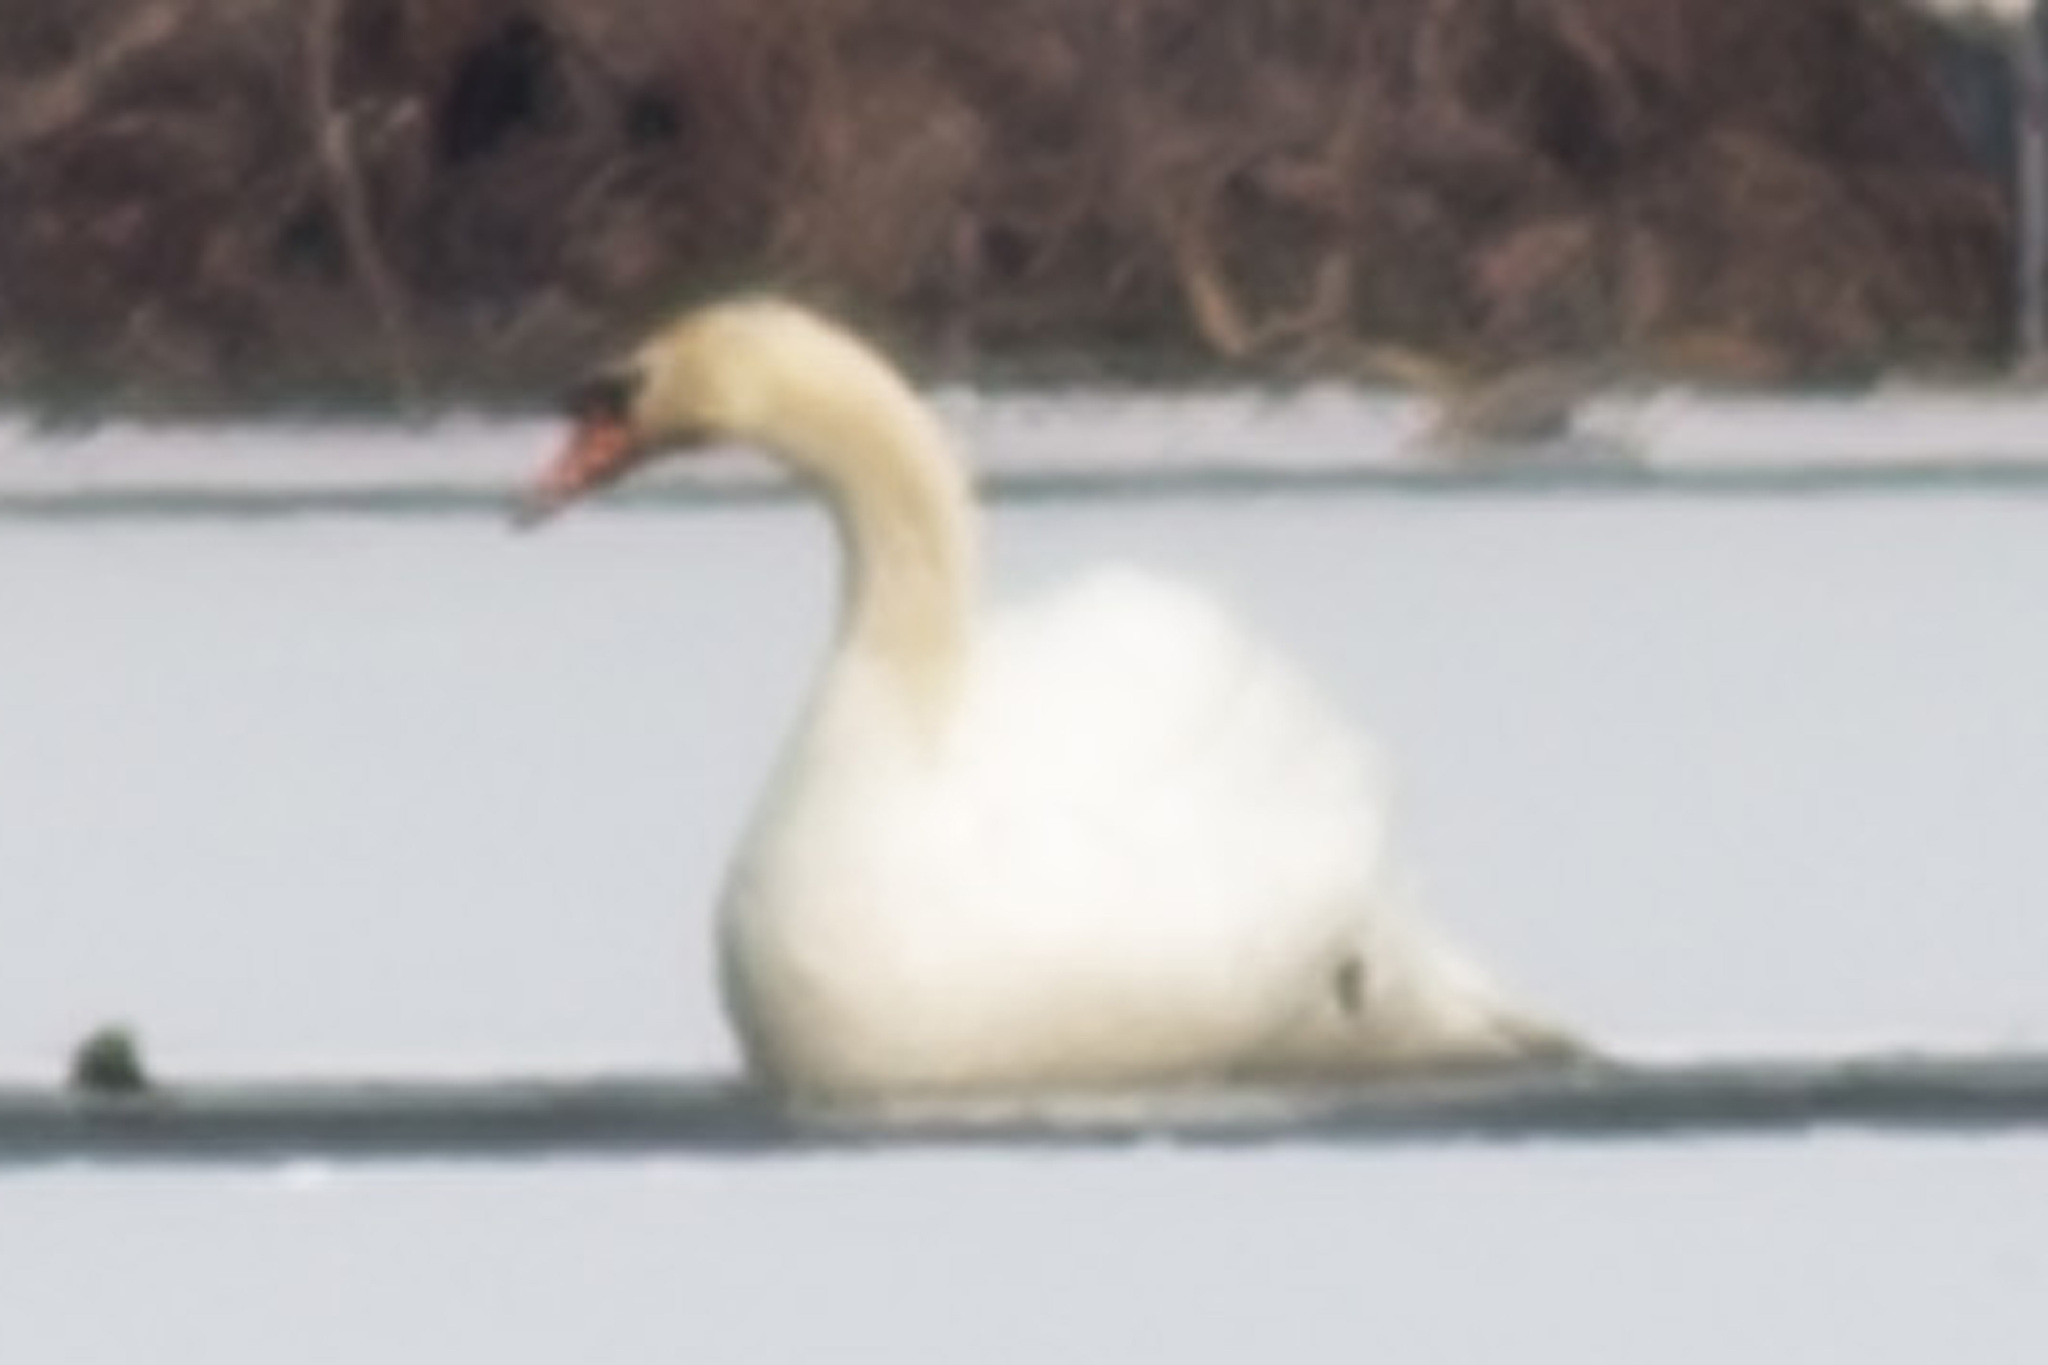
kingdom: Animalia
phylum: Chordata
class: Aves
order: Anseriformes
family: Anatidae
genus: Cygnus
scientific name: Cygnus olor
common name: Mute swan
